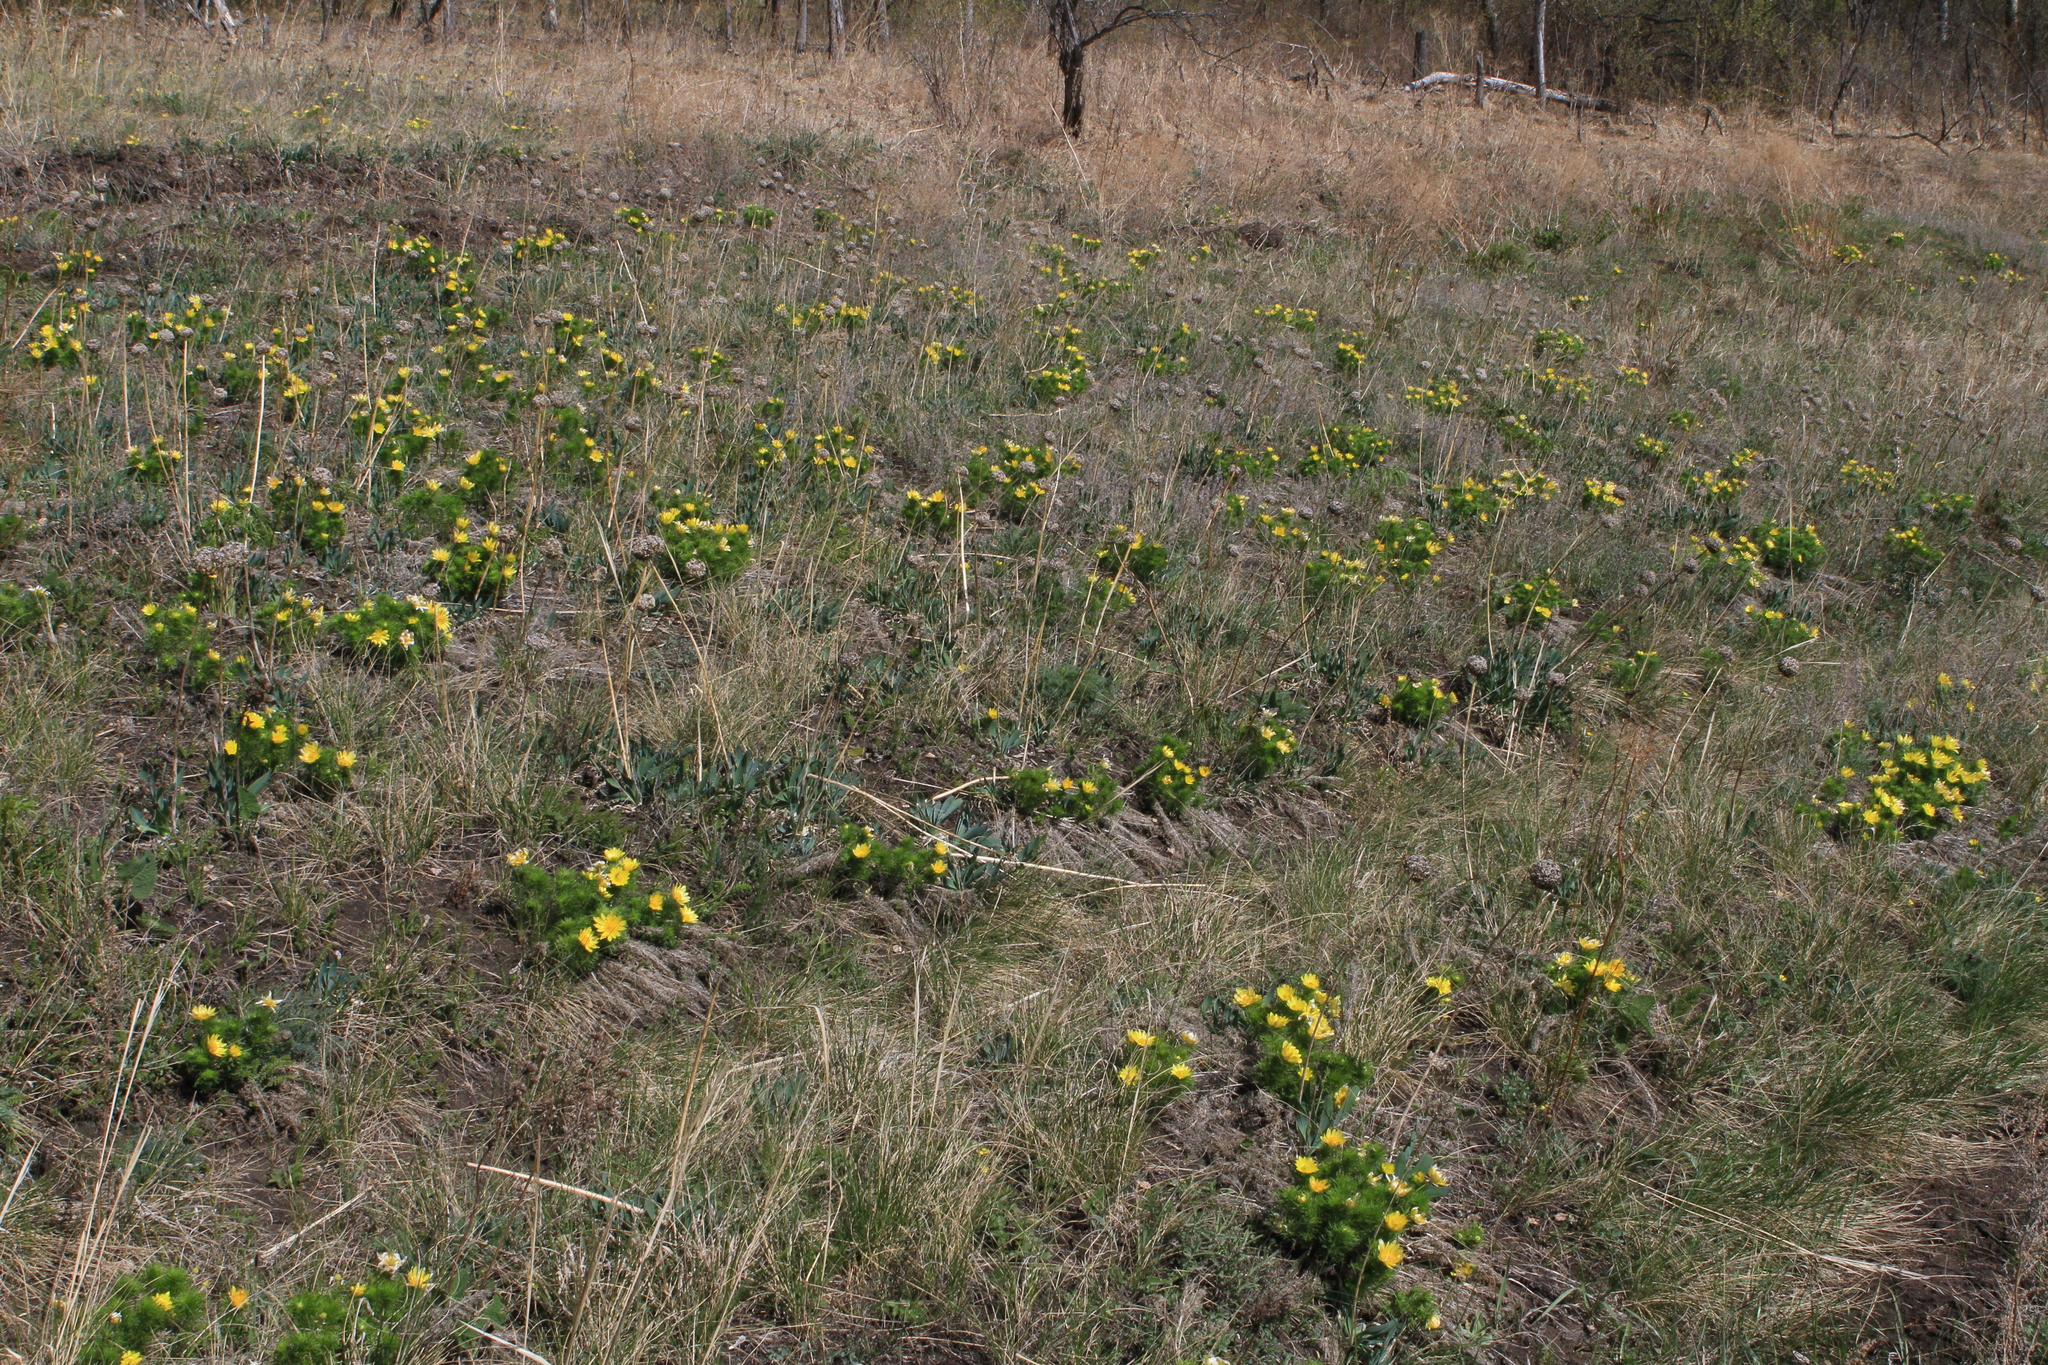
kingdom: Plantae
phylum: Tracheophyta
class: Magnoliopsida
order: Ranunculales
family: Ranunculaceae
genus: Adonis
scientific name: Adonis vernalis
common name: Yellow pheasants-eye
